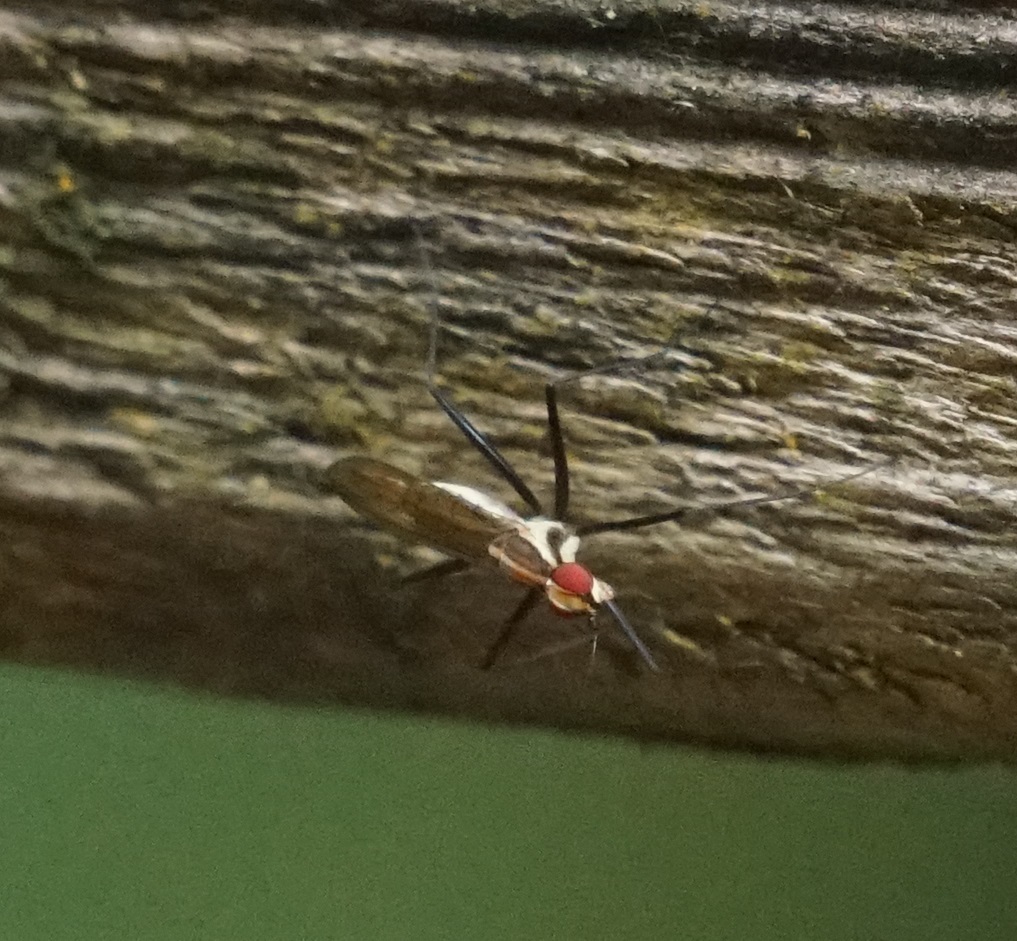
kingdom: Animalia
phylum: Arthropoda
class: Insecta
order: Diptera
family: Neriidae
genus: Telostylinus
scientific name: Telostylinus lineolatus
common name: Banana stalk fly
